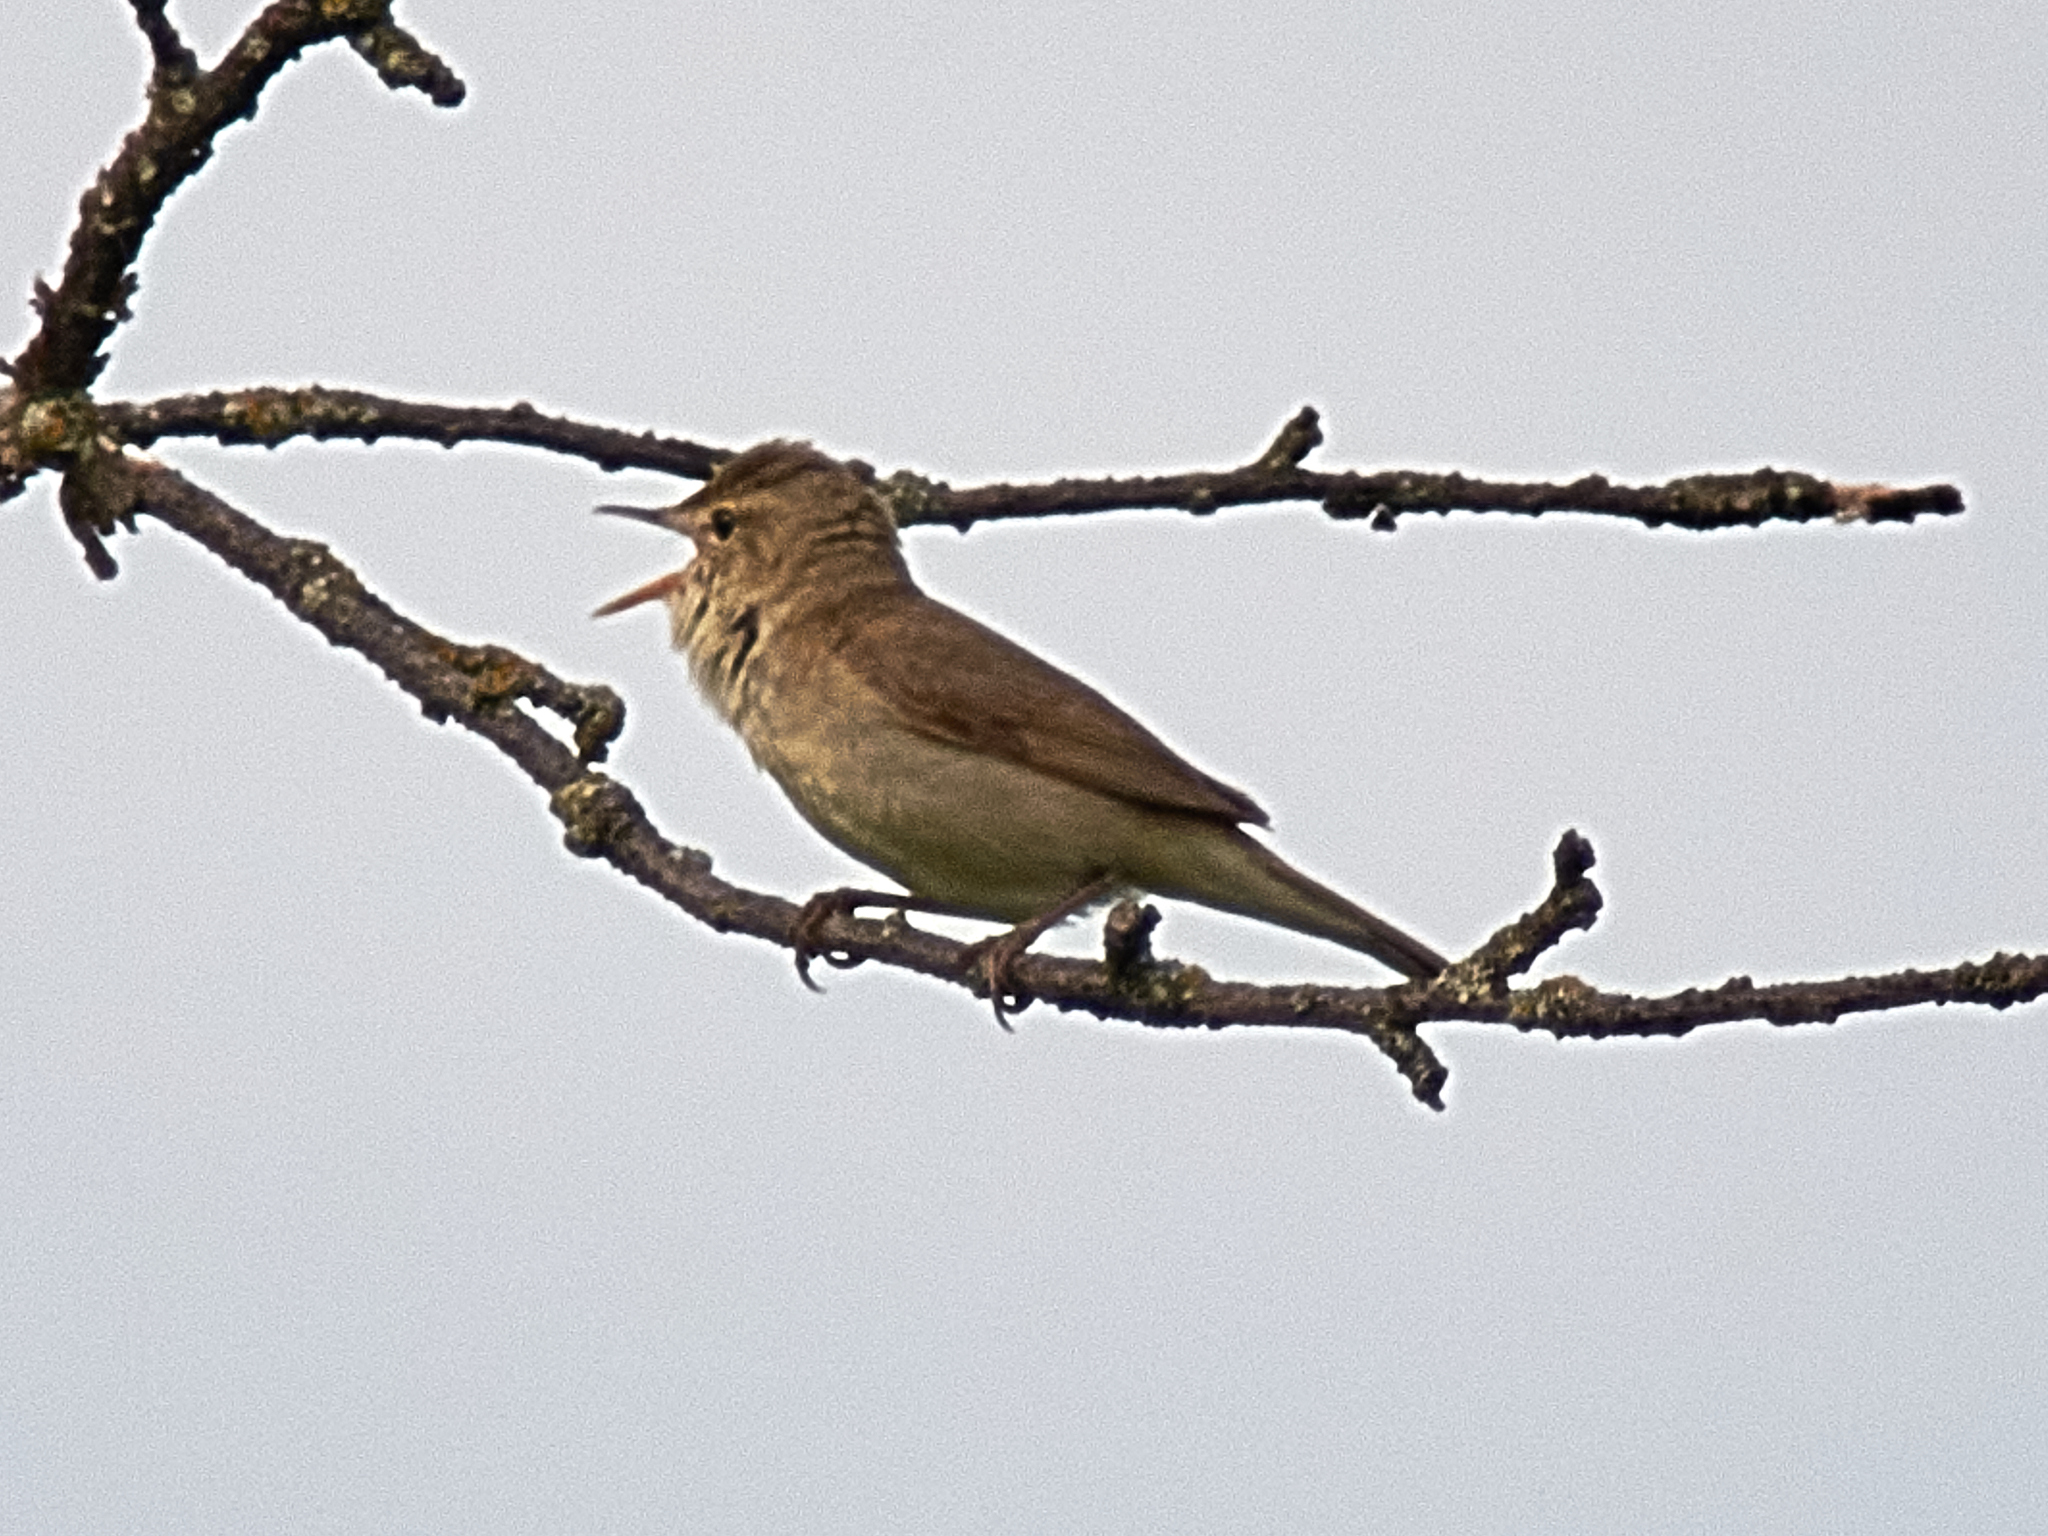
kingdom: Animalia
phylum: Chordata
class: Aves
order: Passeriformes
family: Acrocephalidae
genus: Acrocephalus
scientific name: Acrocephalus dumetorum
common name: Blyth's reed warbler
